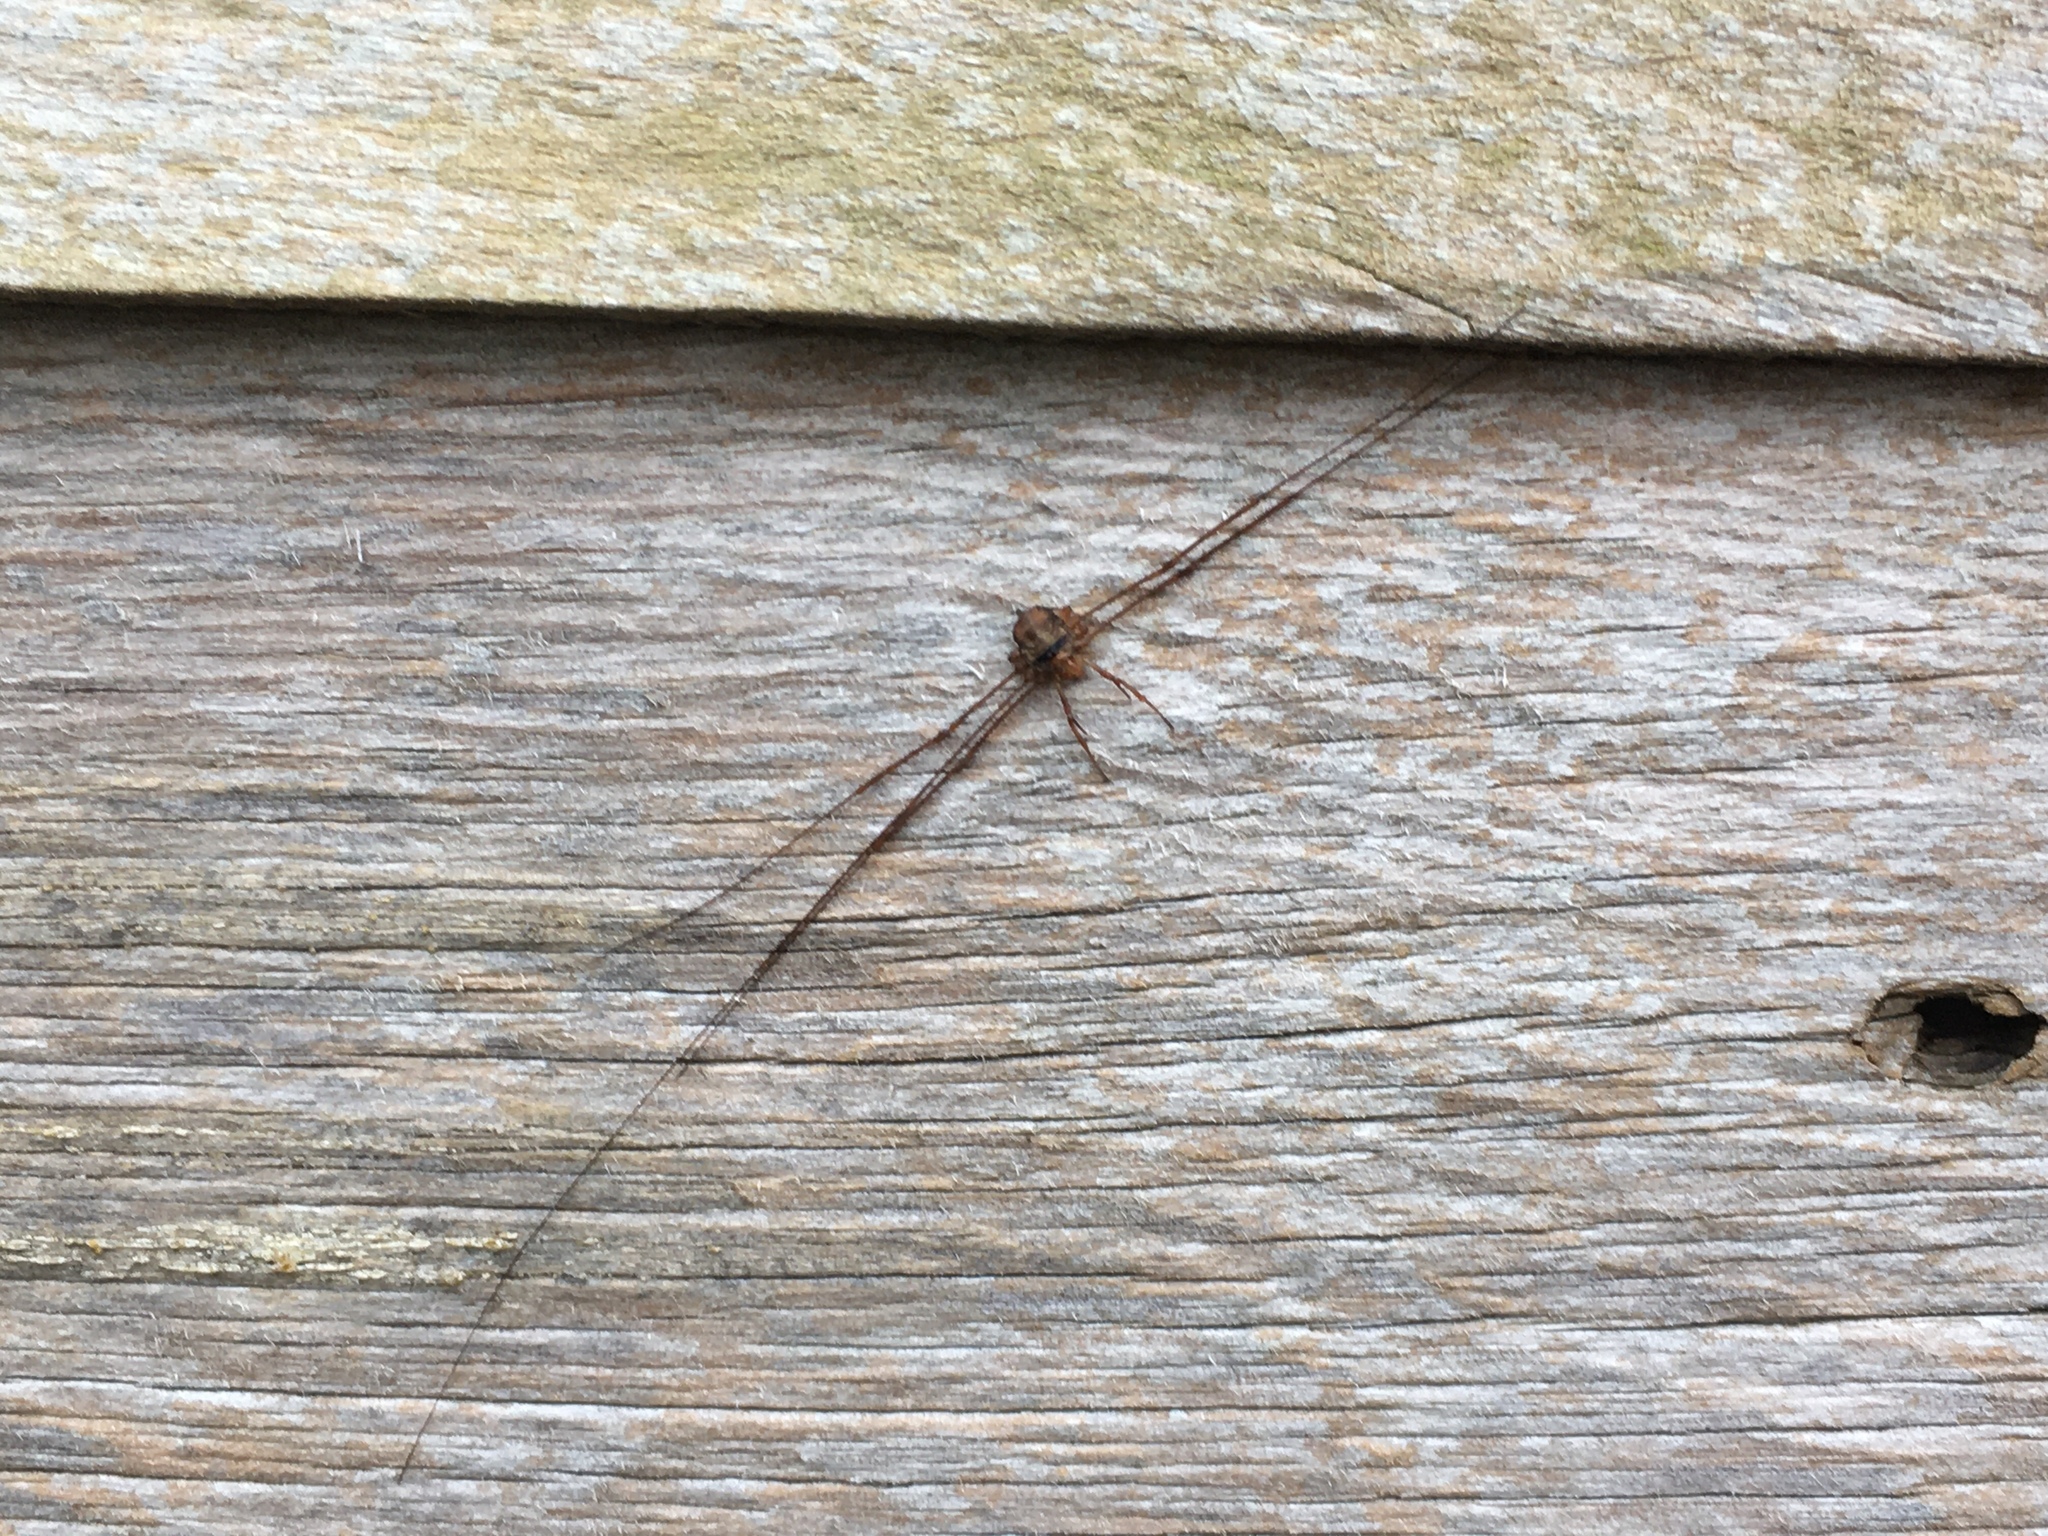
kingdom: Animalia
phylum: Arthropoda
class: Arachnida
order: Opiliones
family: Phalangiidae
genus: Dicranopalpus
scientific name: Dicranopalpus ramosus
